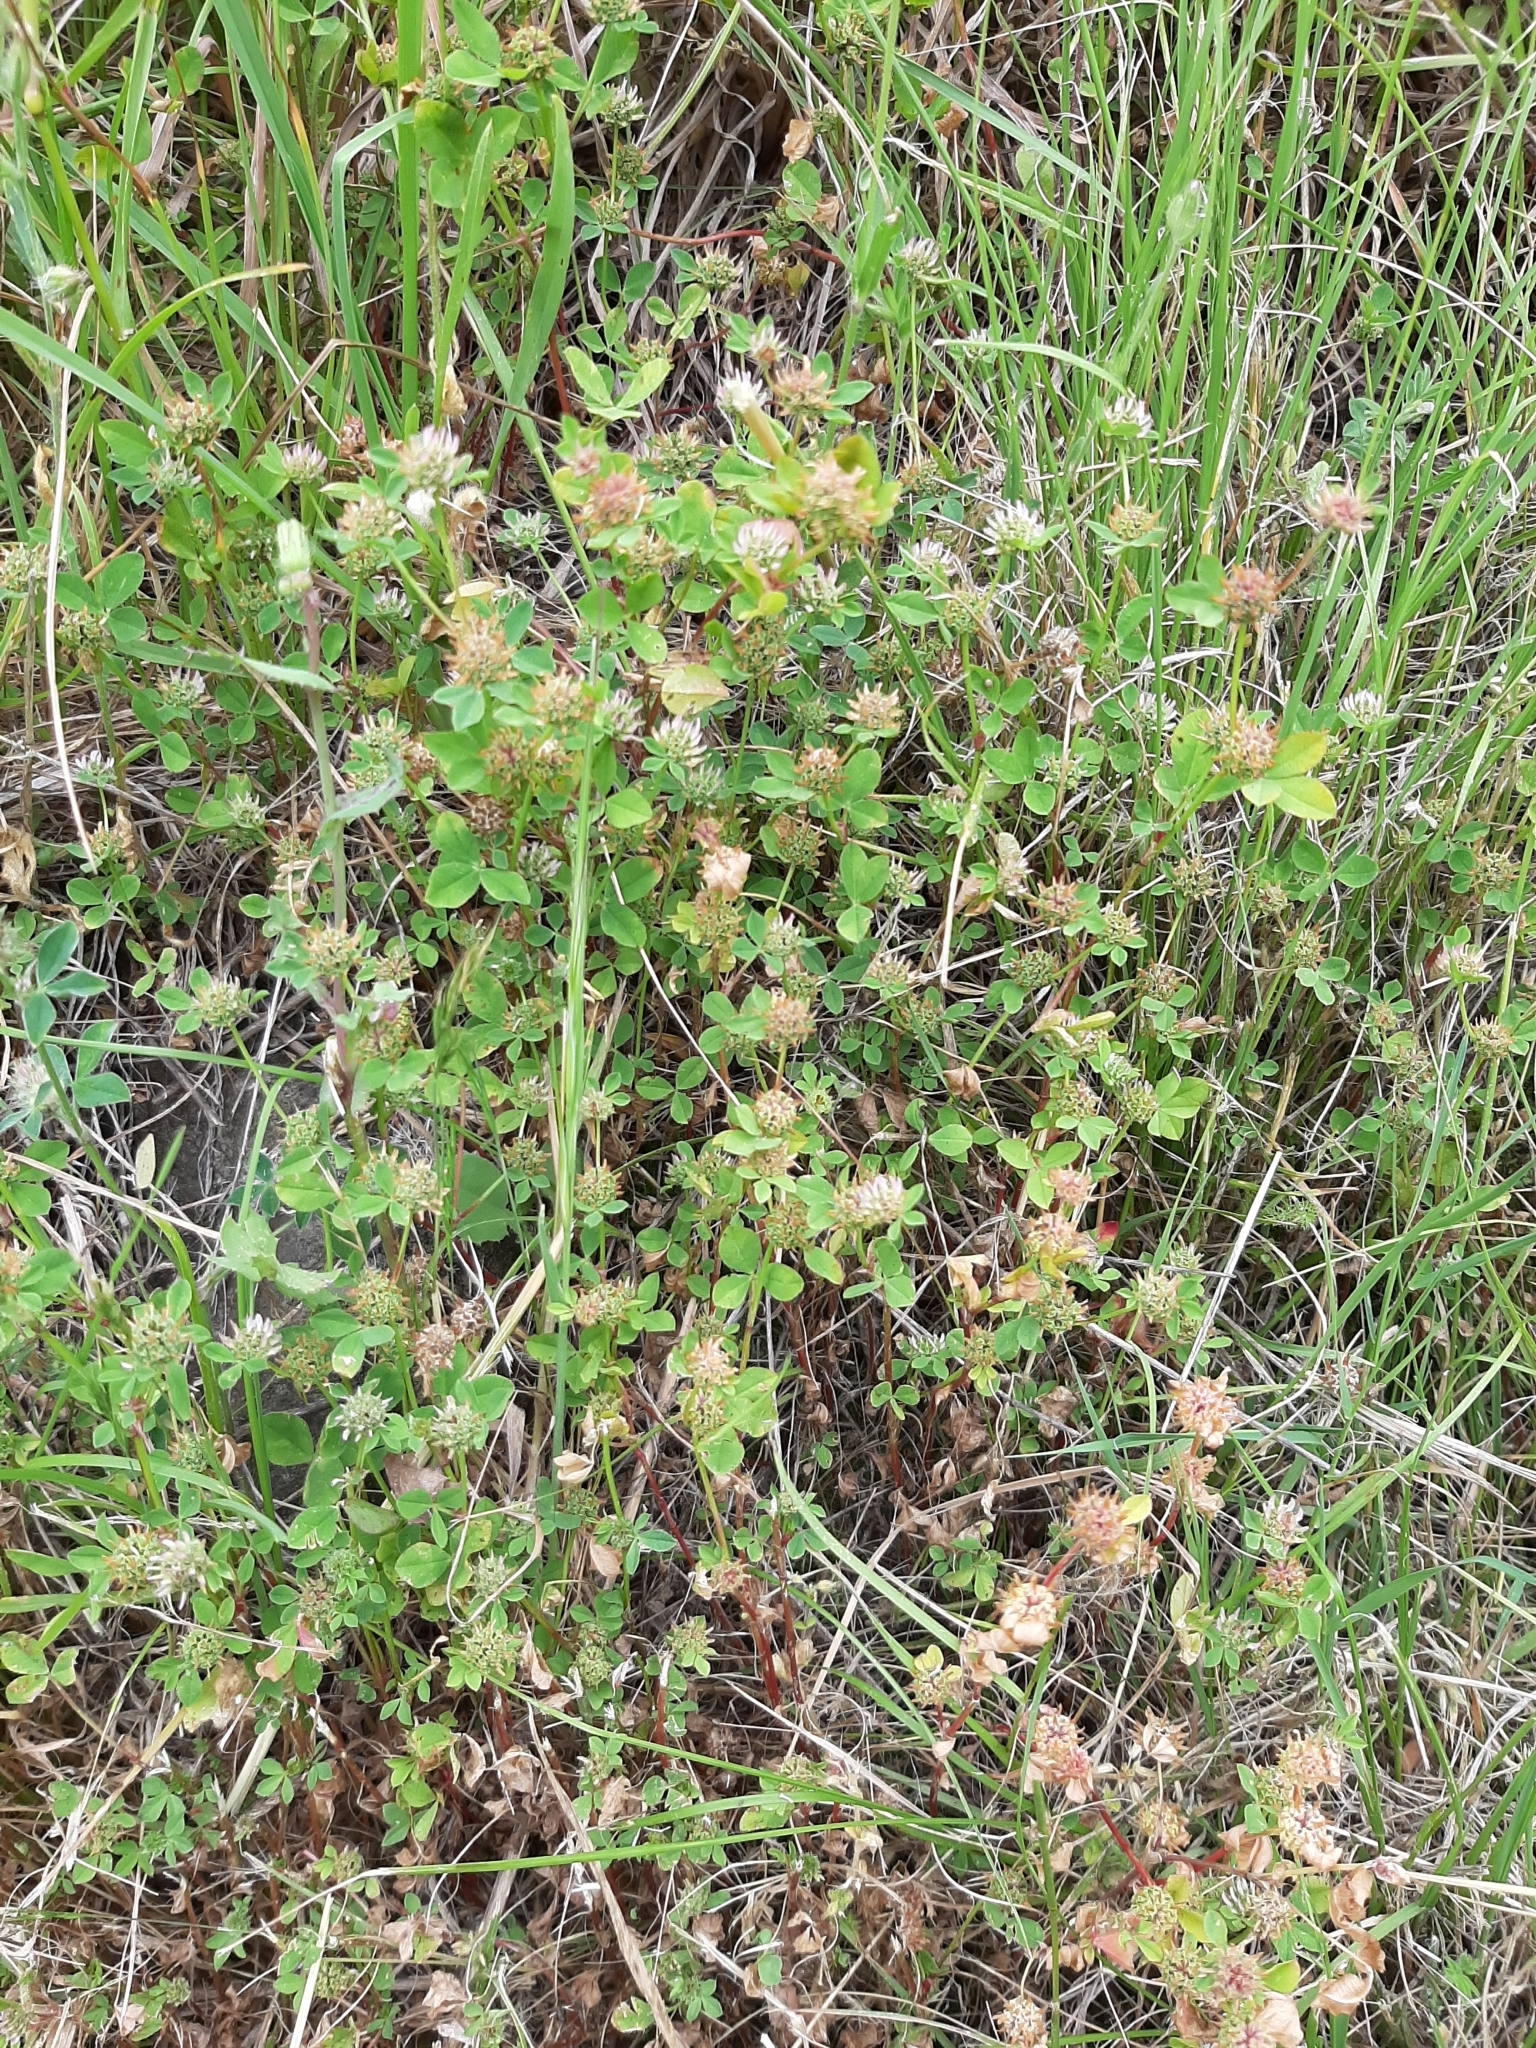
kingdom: Plantae
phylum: Tracheophyta
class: Magnoliopsida
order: Fabales
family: Fabaceae
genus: Trifolium
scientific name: Trifolium glomeratum
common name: Clustered clover
